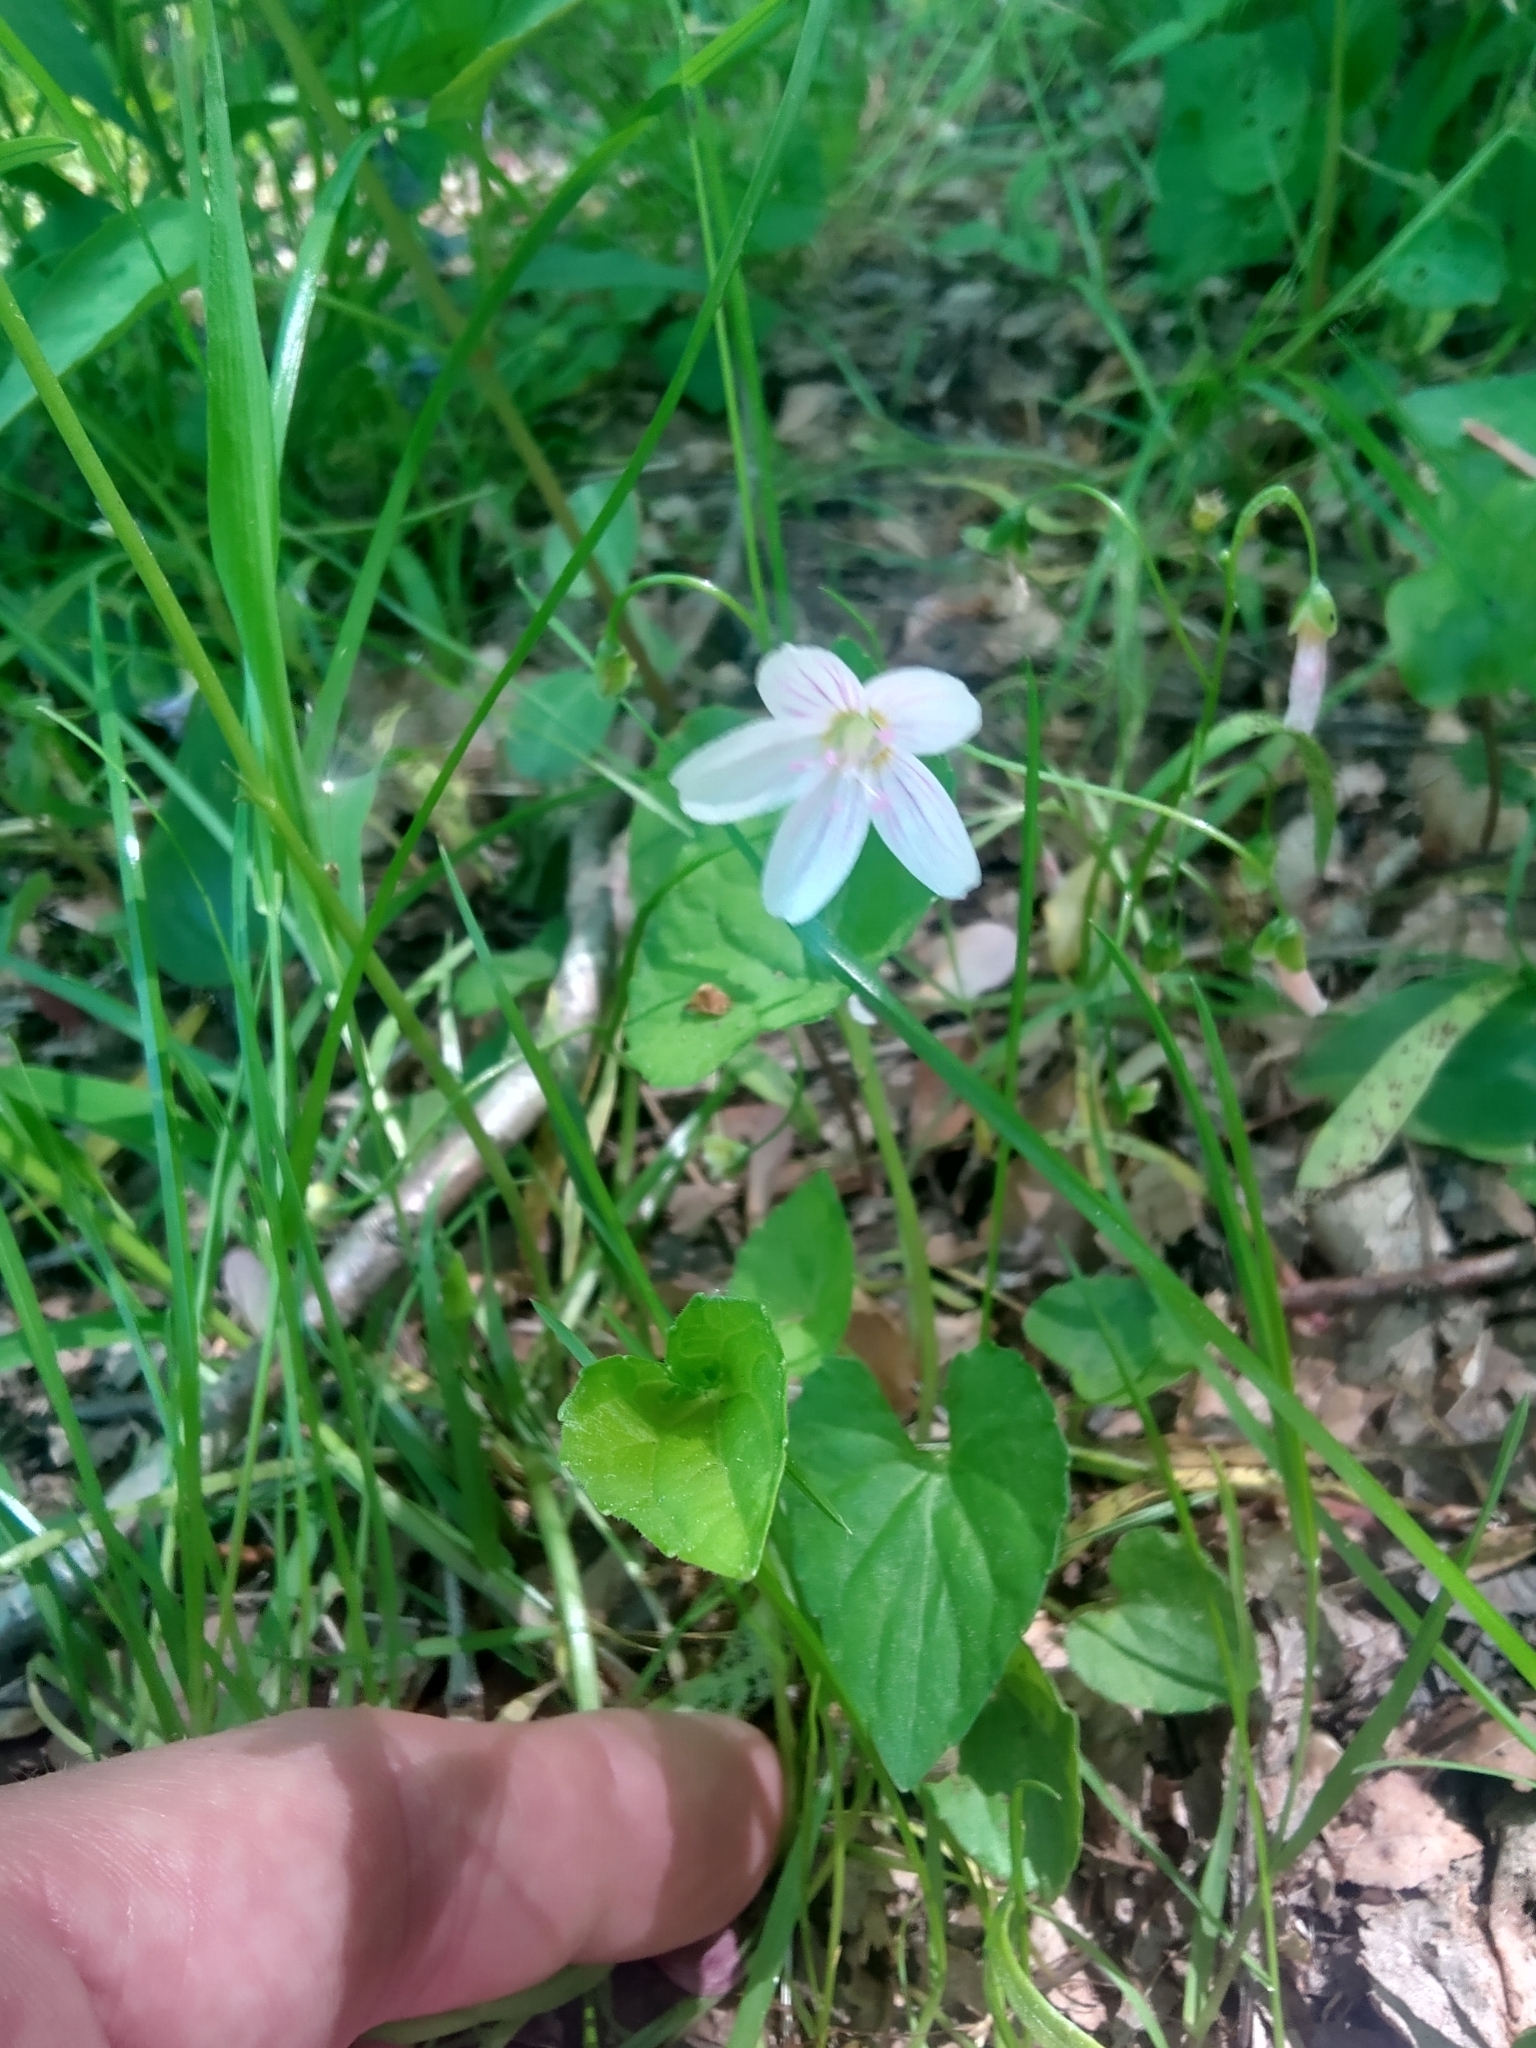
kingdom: Plantae
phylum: Tracheophyta
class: Magnoliopsida
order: Caryophyllales
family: Montiaceae
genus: Claytonia
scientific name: Claytonia virginica
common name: Virginia springbeauty
